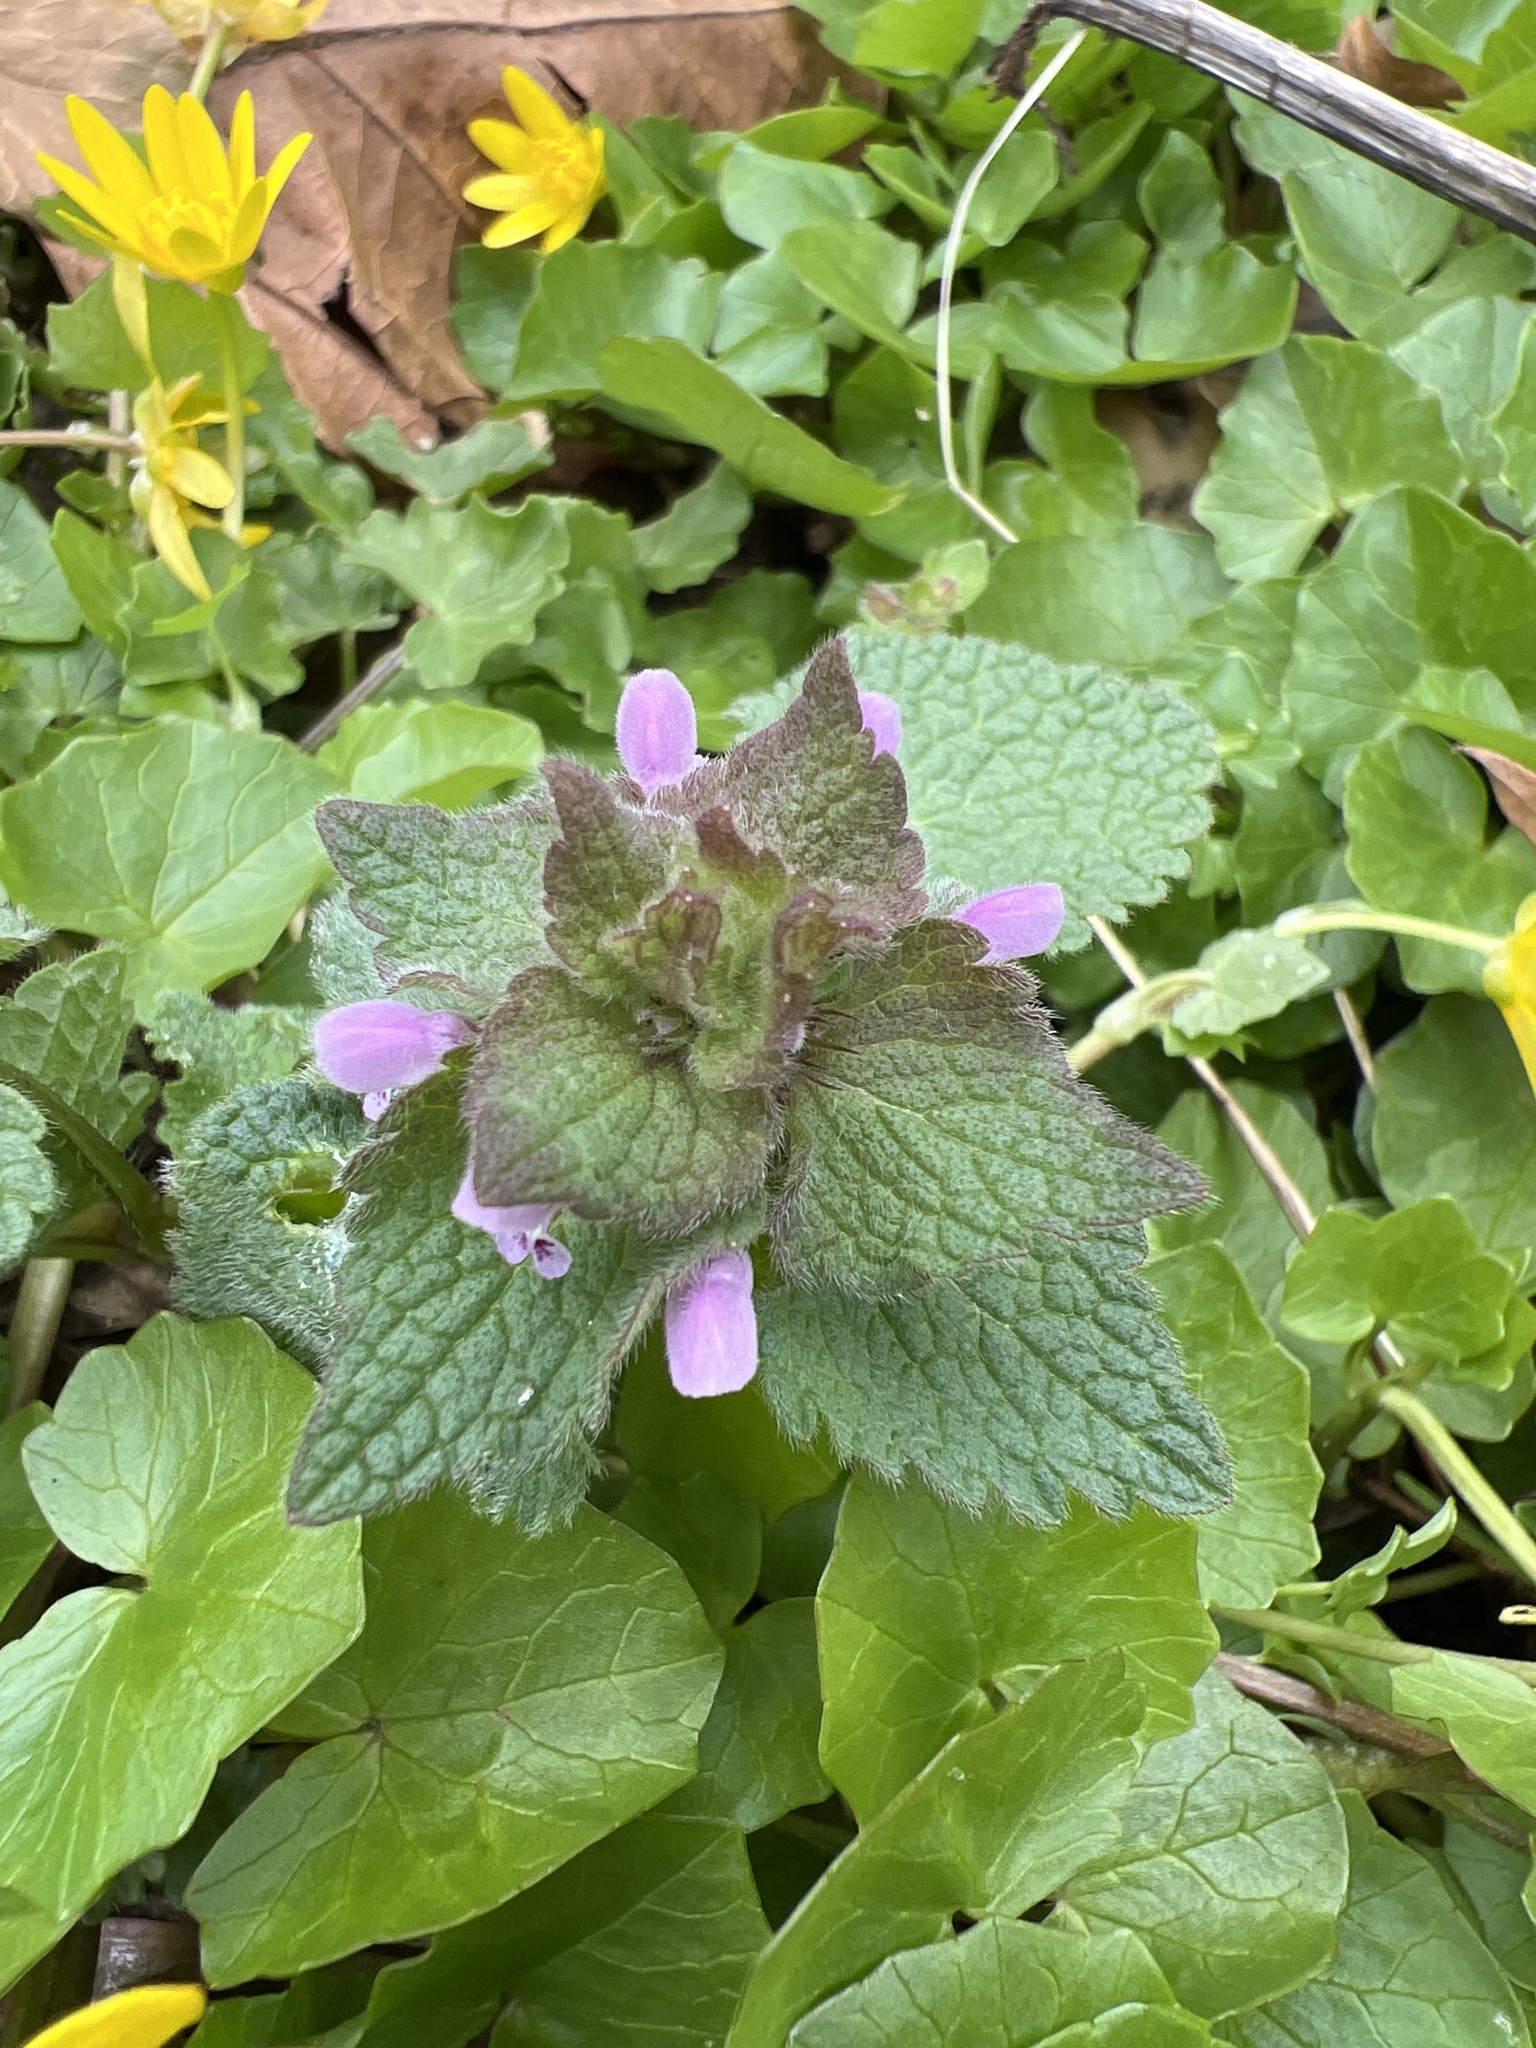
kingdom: Plantae
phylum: Tracheophyta
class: Magnoliopsida
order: Lamiales
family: Lamiaceae
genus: Lamium
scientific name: Lamium purpureum
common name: Red dead-nettle
